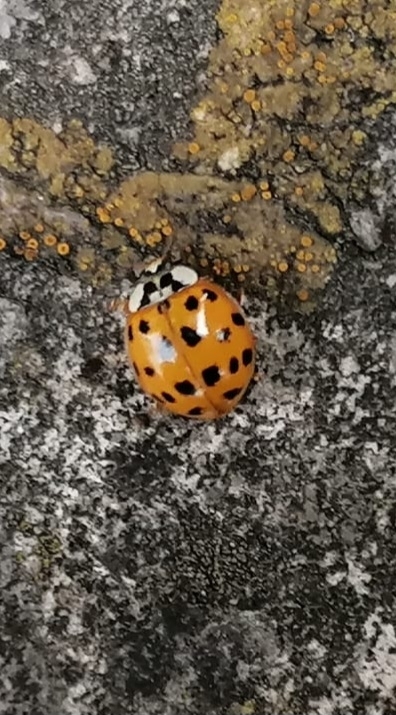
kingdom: Animalia
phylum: Arthropoda
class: Insecta
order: Coleoptera
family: Coccinellidae
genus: Harmonia
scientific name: Harmonia axyridis
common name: Harlequin ladybird
